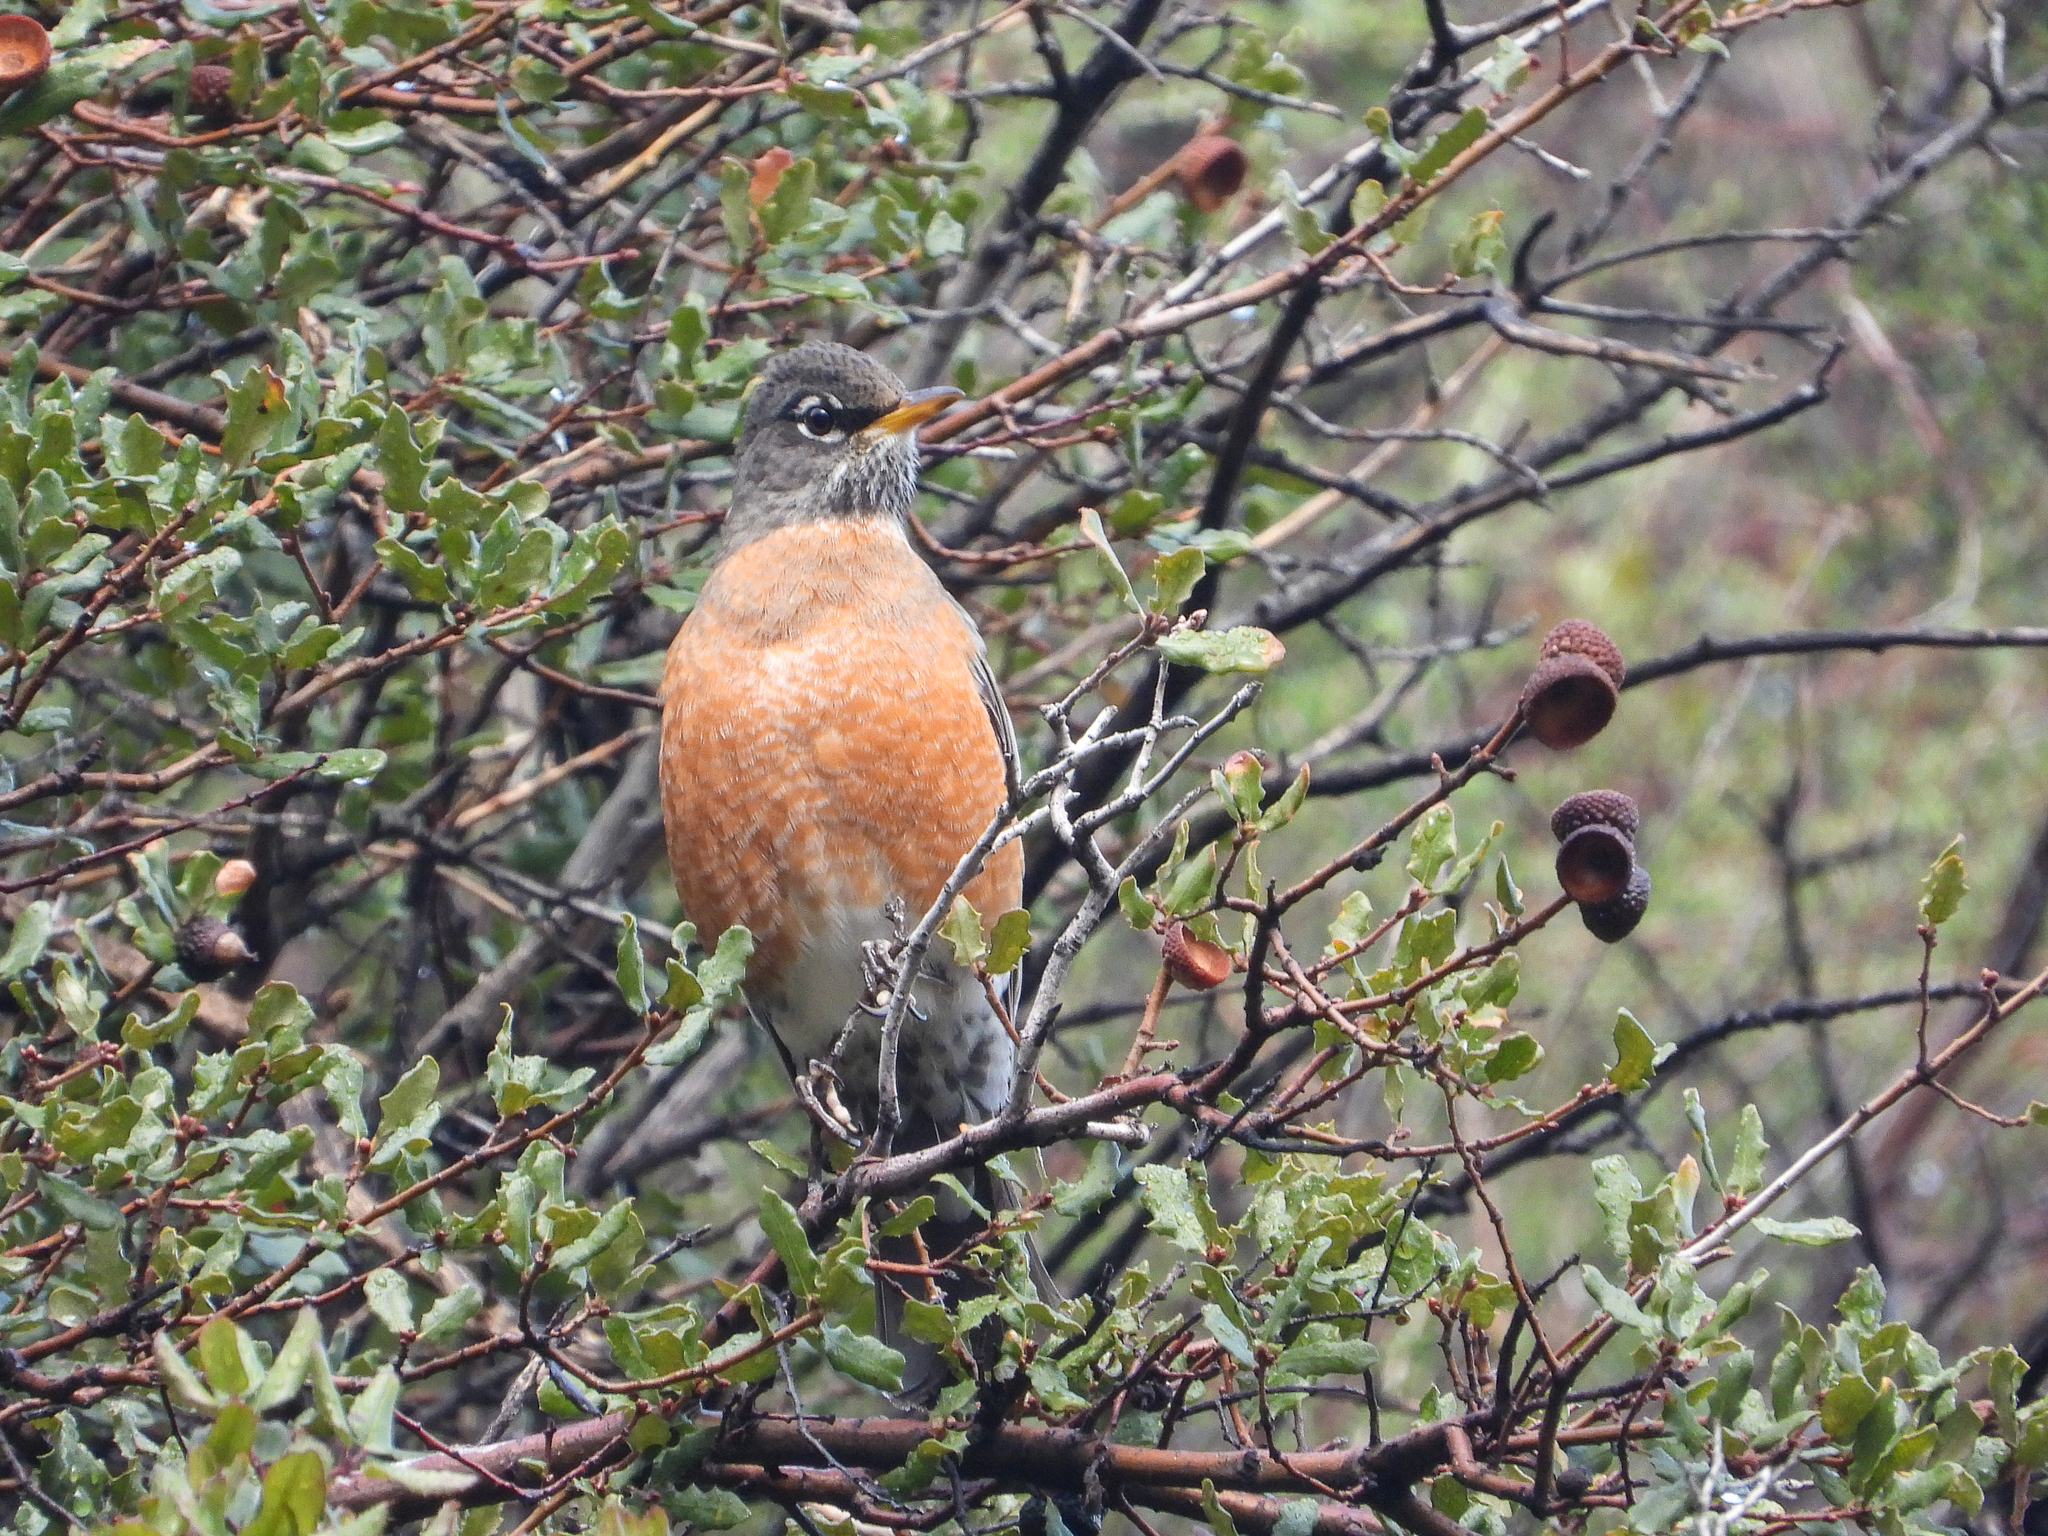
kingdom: Animalia
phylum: Chordata
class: Aves
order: Passeriformes
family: Turdidae
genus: Turdus
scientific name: Turdus migratorius
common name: American robin
